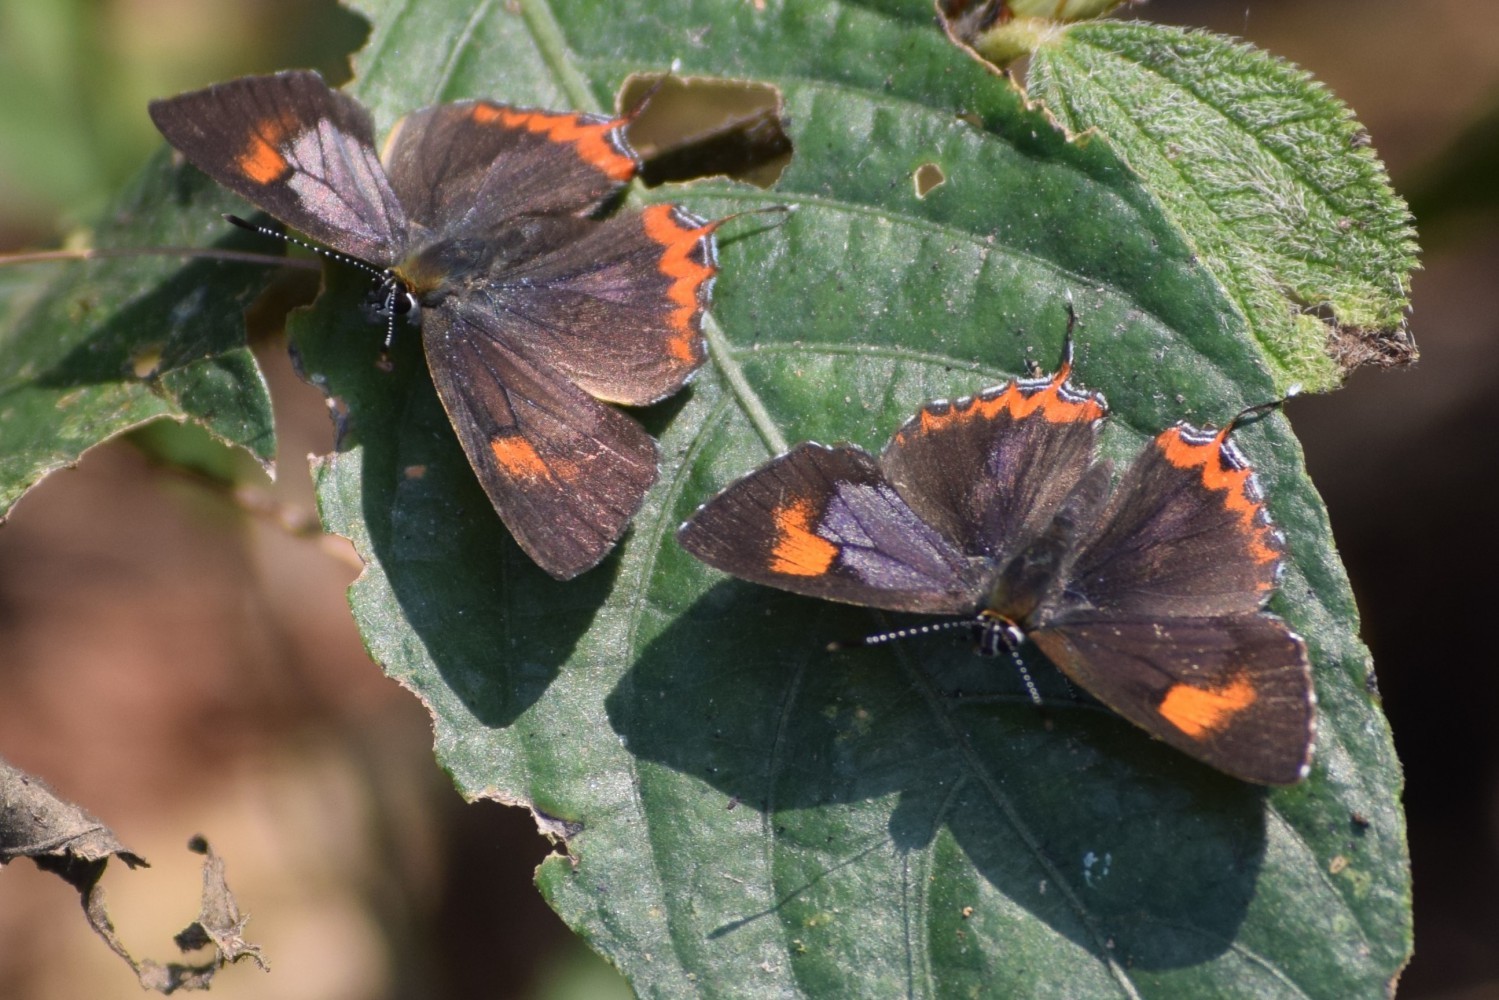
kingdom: Animalia
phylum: Arthropoda
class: Insecta
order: Lepidoptera
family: Lycaenidae
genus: Heliophorus
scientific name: Heliophorus epicles
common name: Purple sapphire
